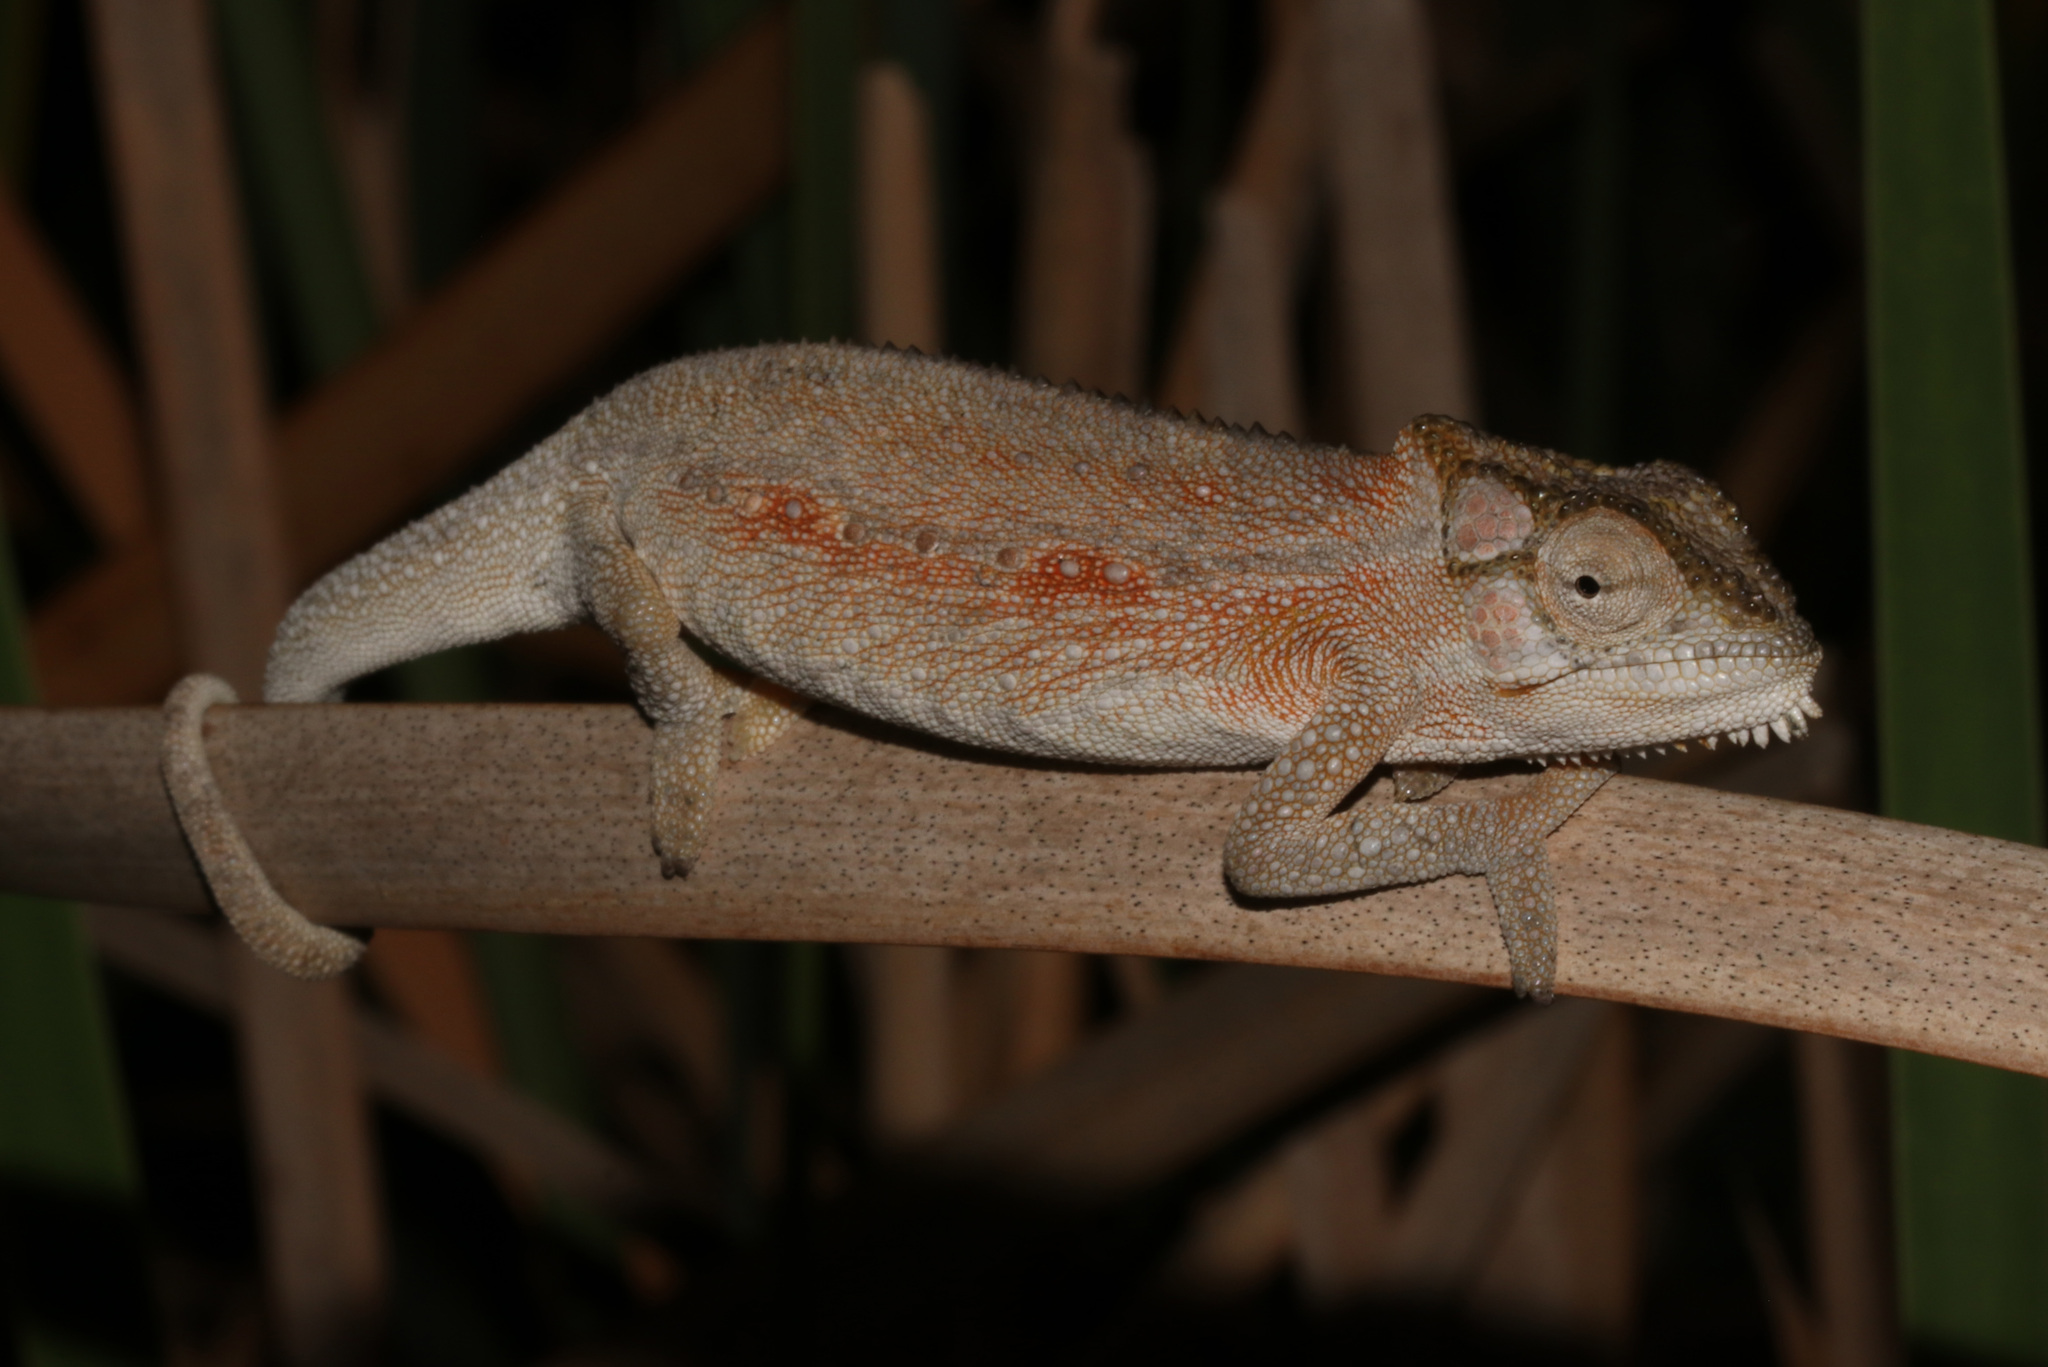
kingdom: Animalia
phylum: Chordata
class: Squamata
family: Chamaeleonidae
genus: Bradypodion
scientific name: Bradypodion pumilum
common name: Cape dwarf chameleon
